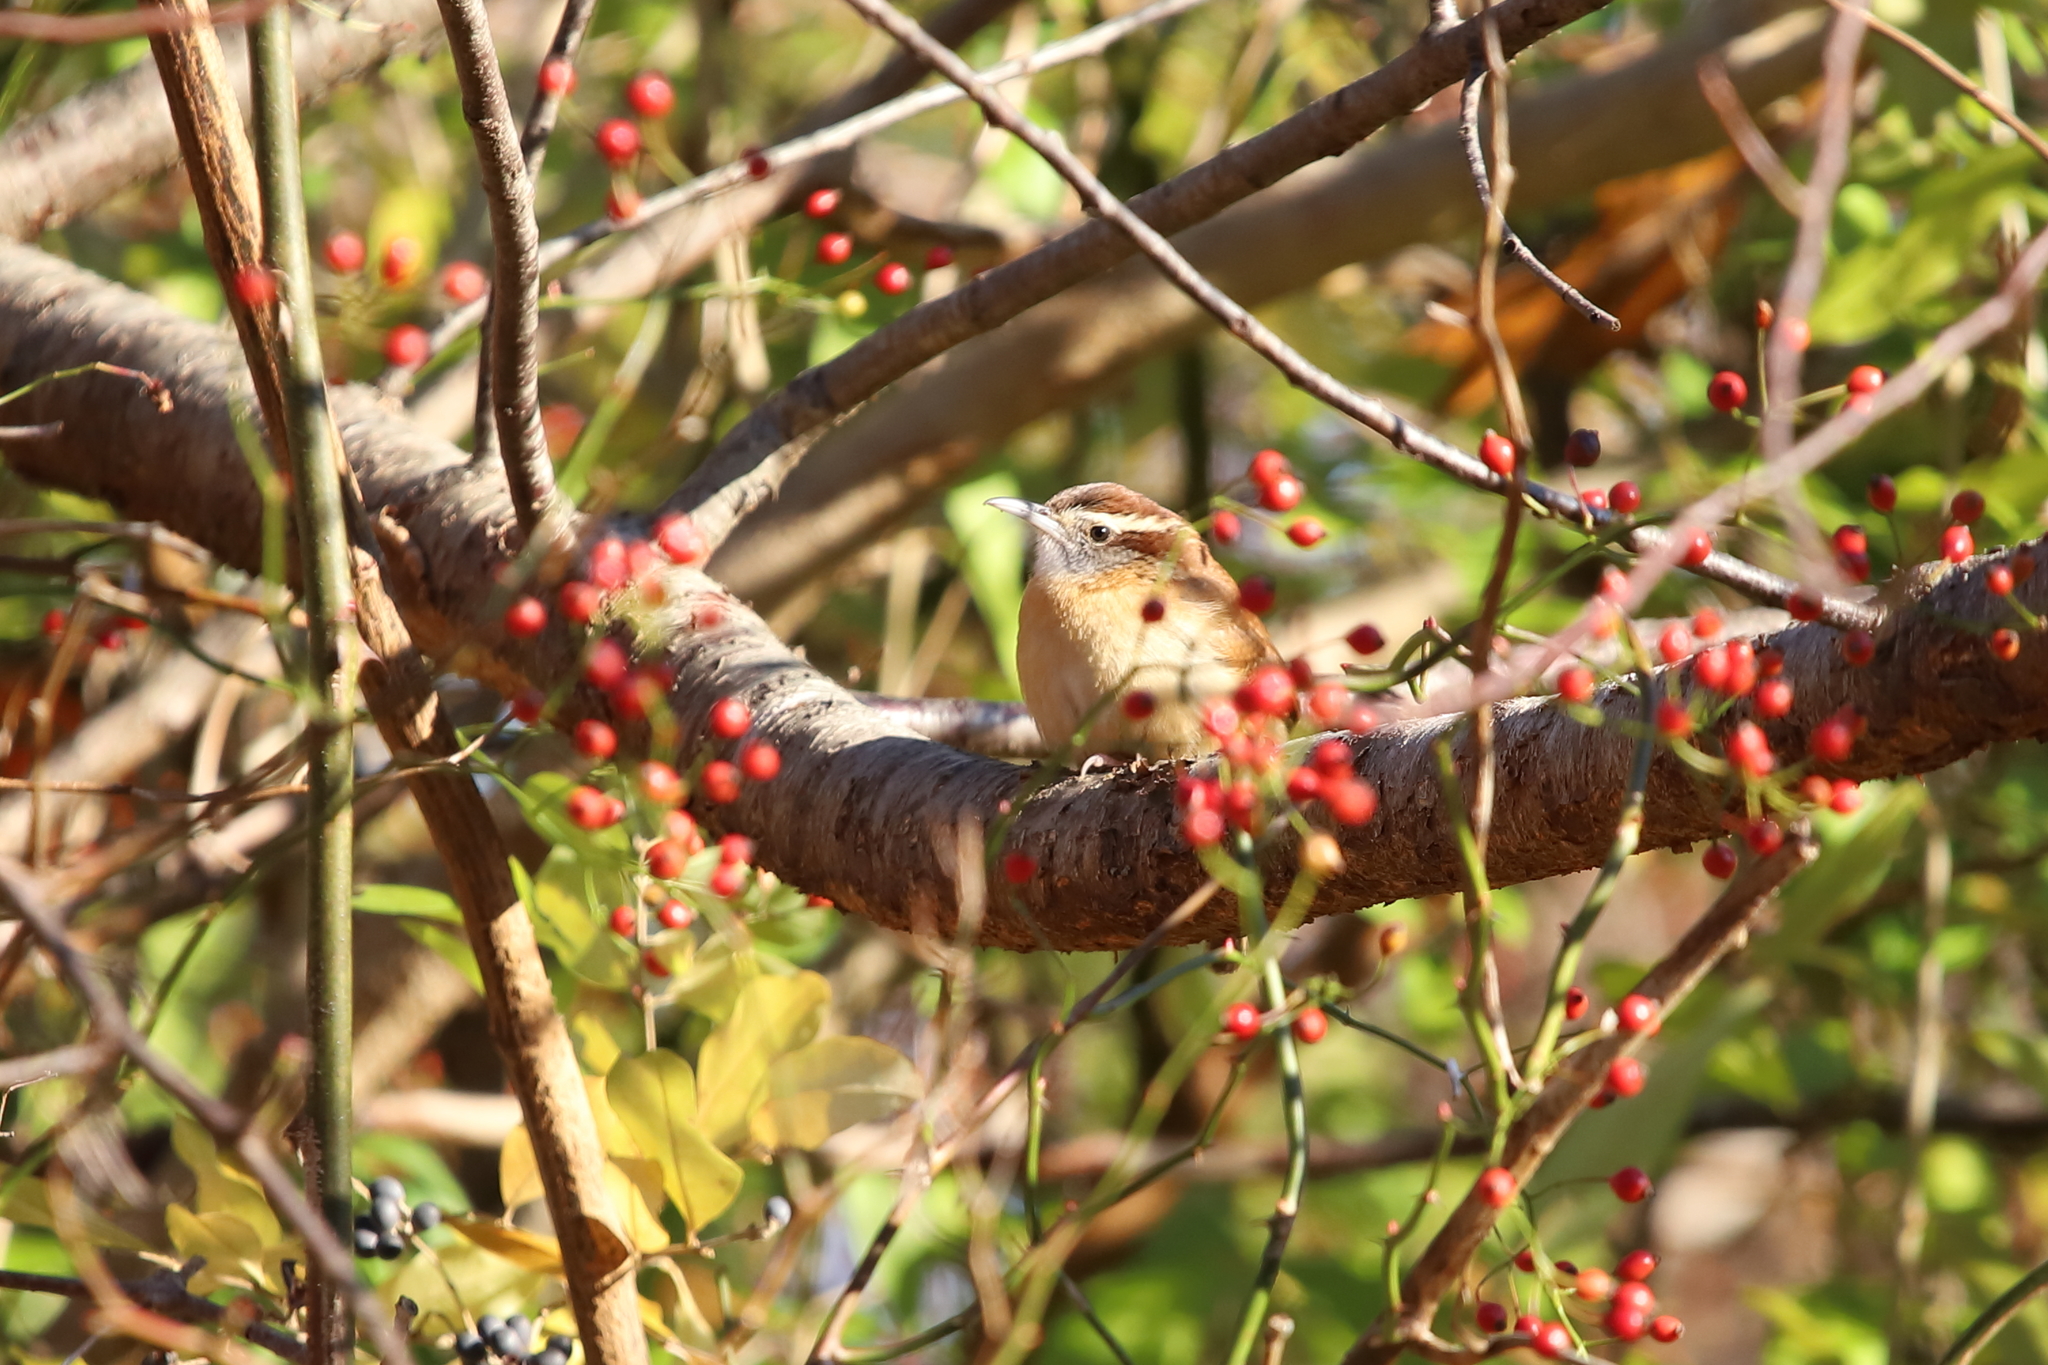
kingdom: Animalia
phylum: Chordata
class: Aves
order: Passeriformes
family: Troglodytidae
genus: Thryothorus
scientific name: Thryothorus ludovicianus
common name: Carolina wren
